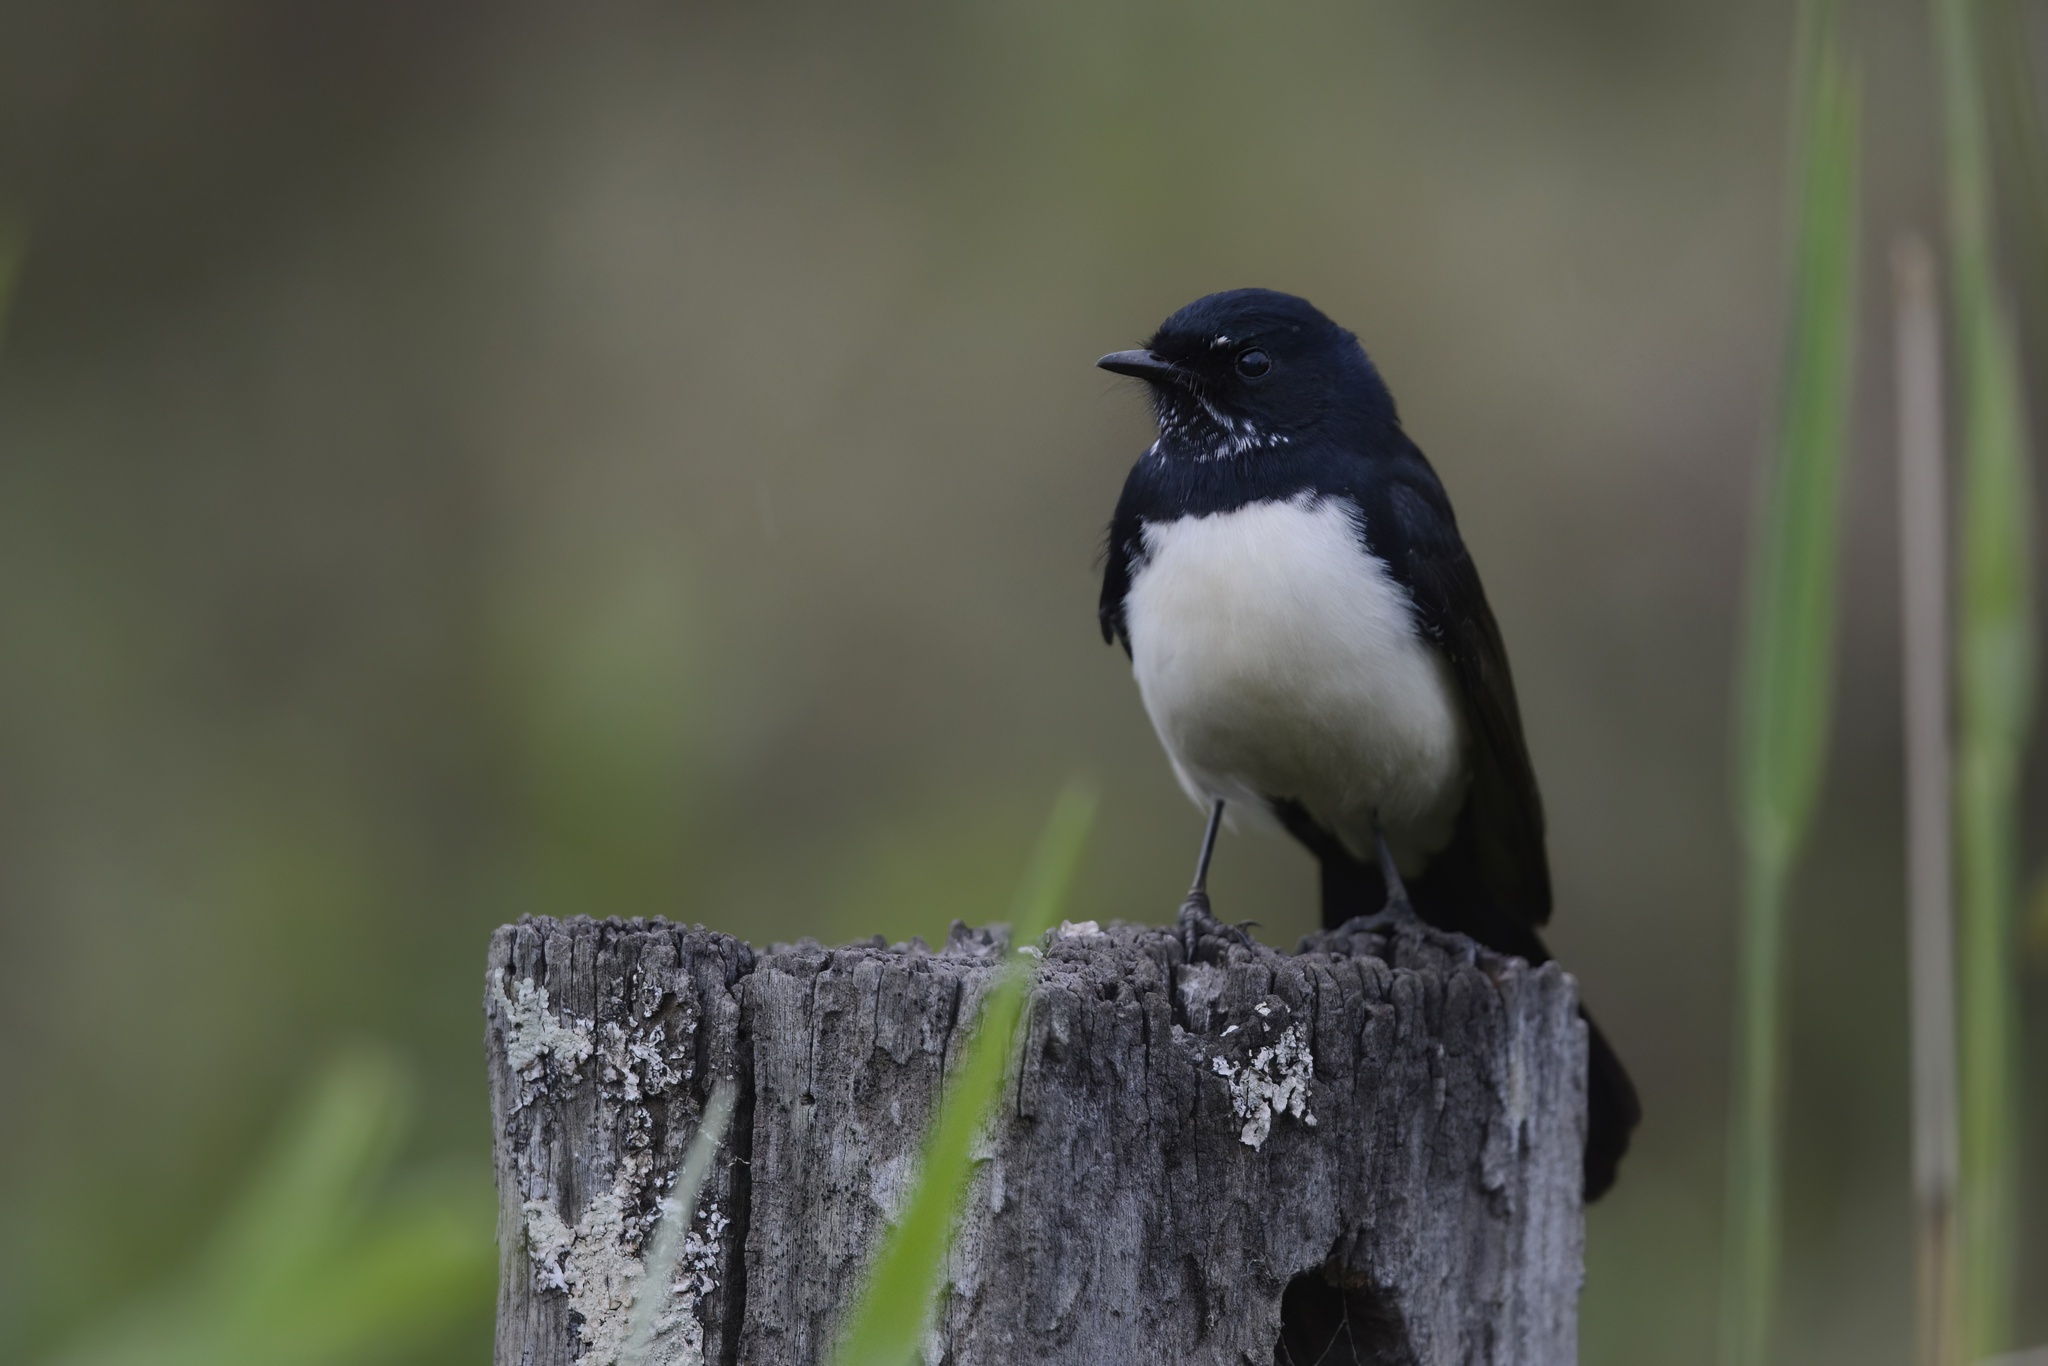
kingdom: Animalia
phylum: Chordata
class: Aves
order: Passeriformes
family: Rhipiduridae
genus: Rhipidura
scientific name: Rhipidura leucophrys
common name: Willie wagtail
